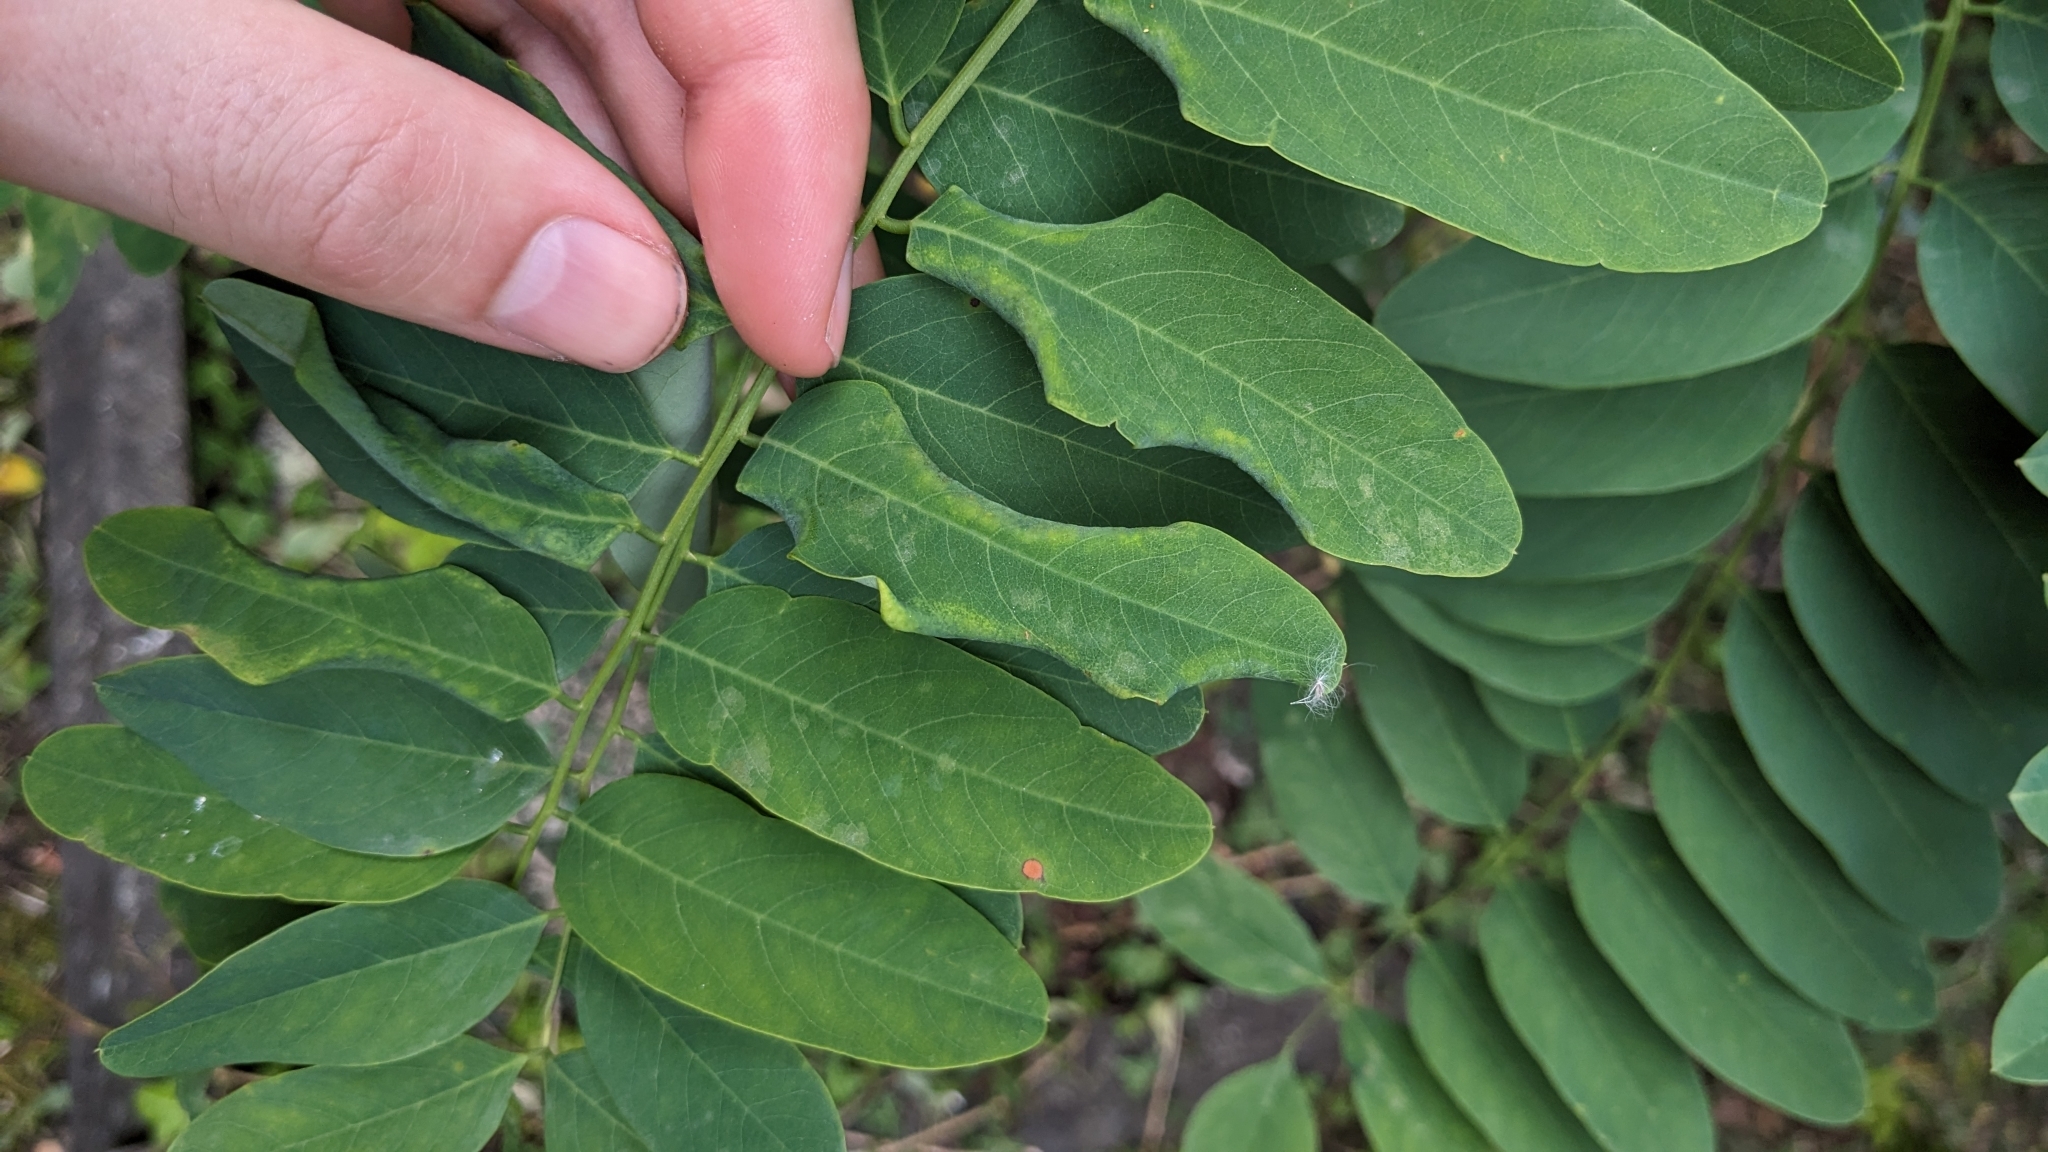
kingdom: Animalia
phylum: Arthropoda
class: Insecta
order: Diptera
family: Cecidomyiidae
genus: Obolodiplosis
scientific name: Obolodiplosis robiniae
